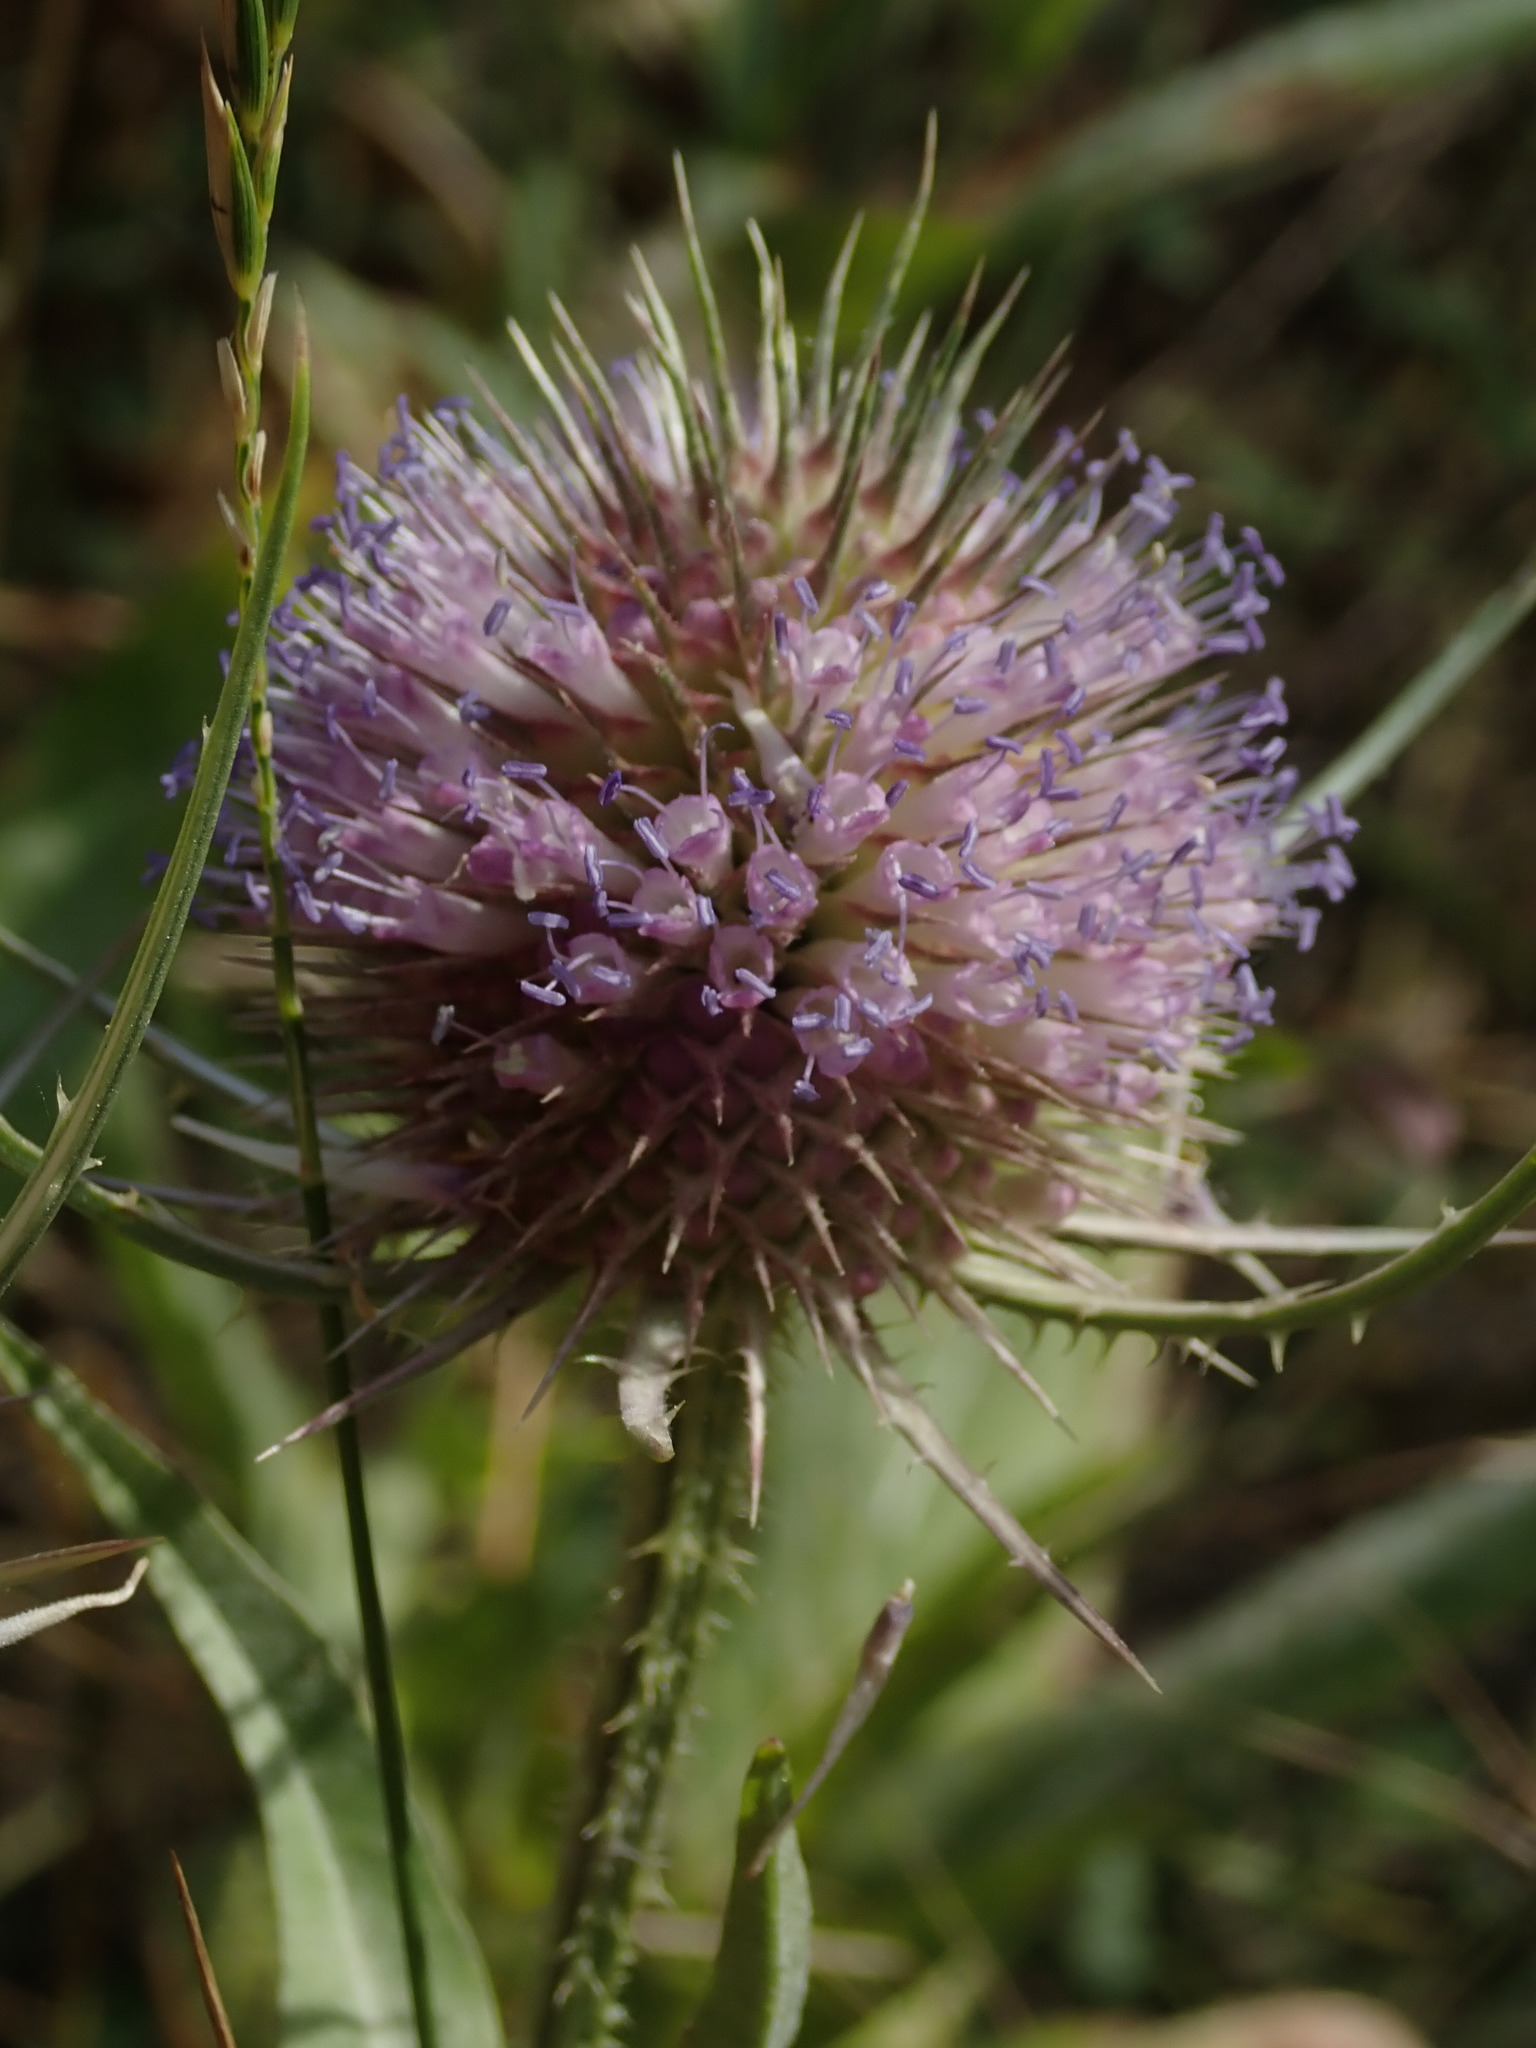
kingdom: Plantae
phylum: Tracheophyta
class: Magnoliopsida
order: Dipsacales
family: Caprifoliaceae
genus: Dipsacus
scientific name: Dipsacus fullonum
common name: Teasel
